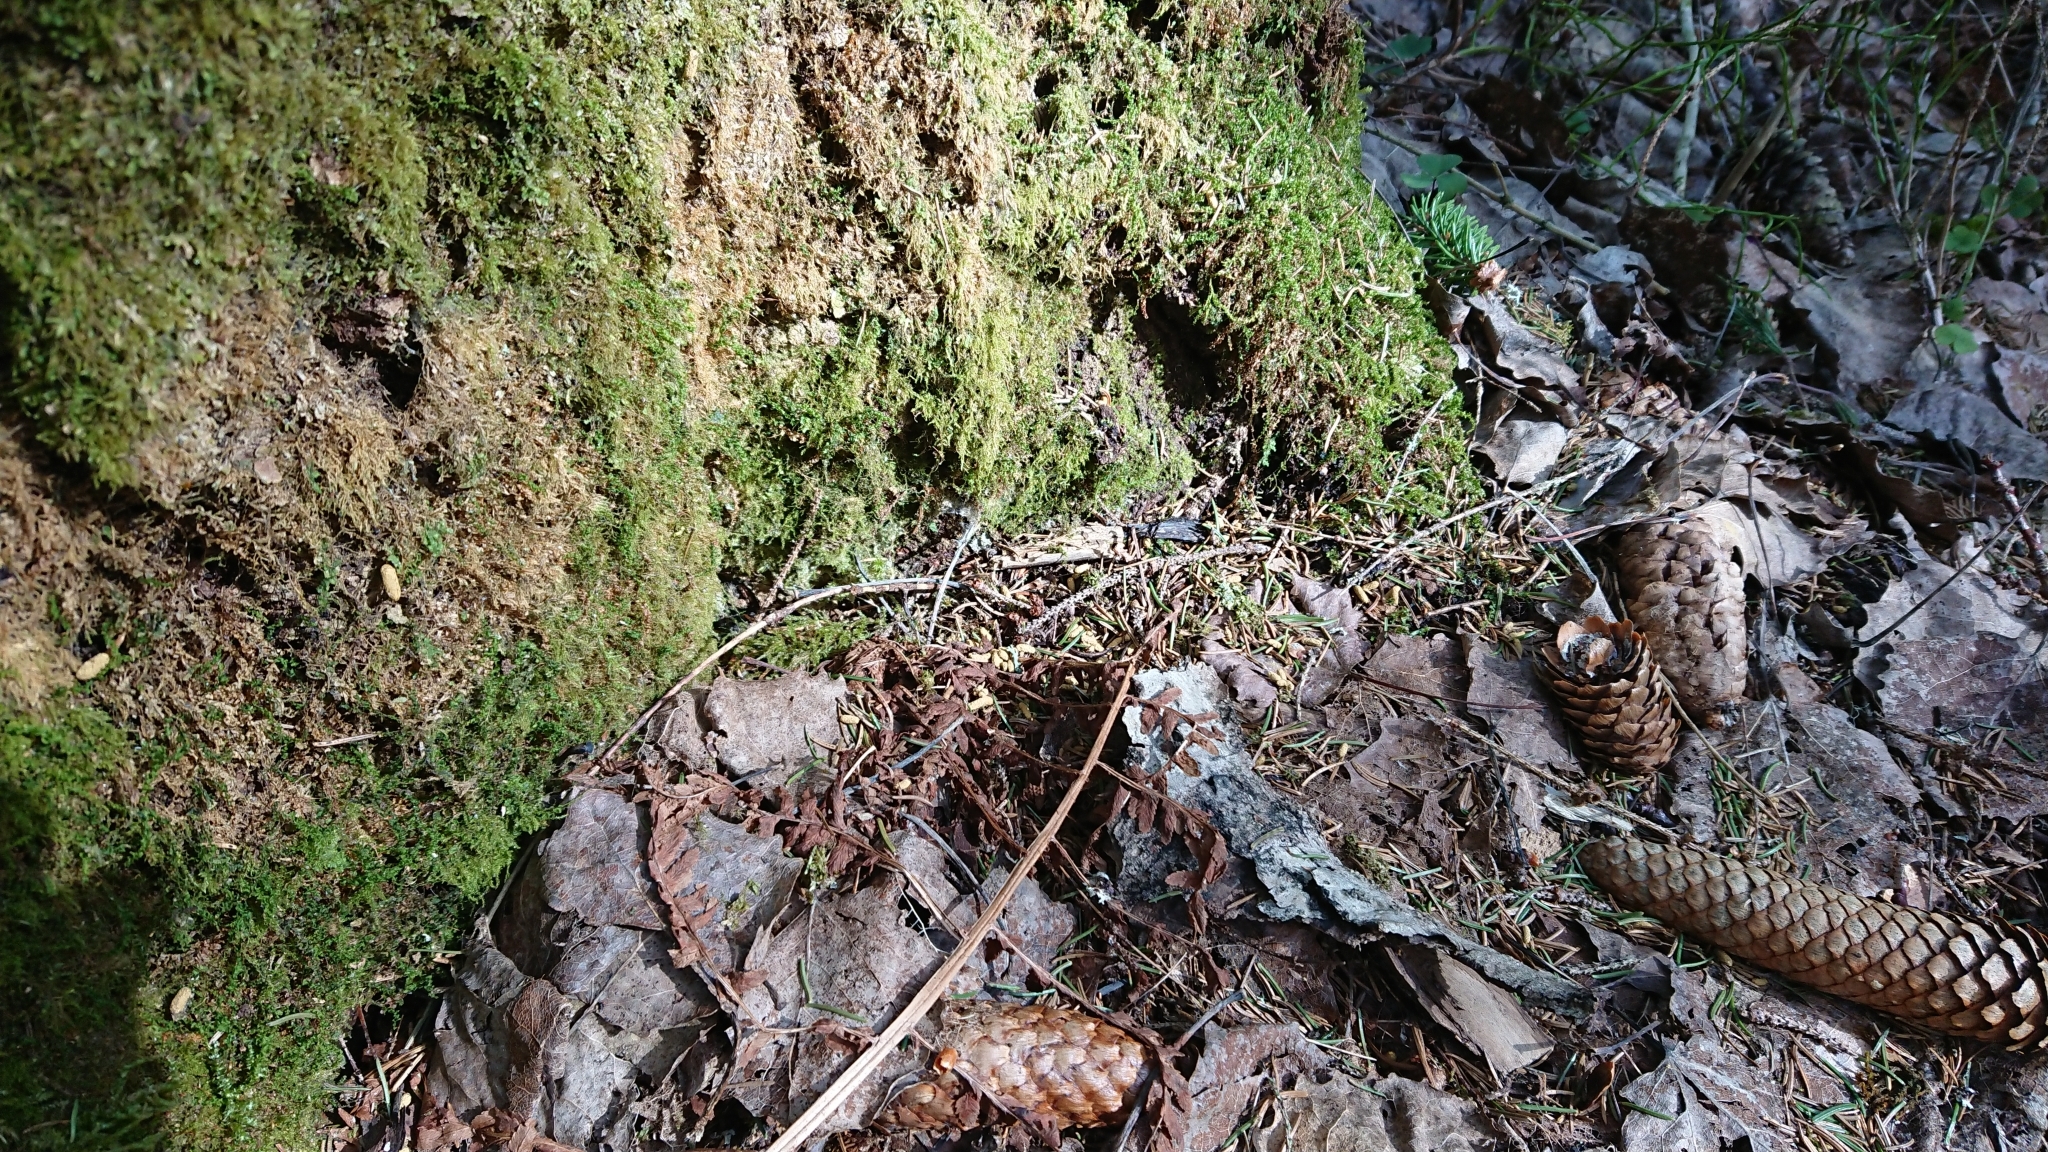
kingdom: Animalia
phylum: Chordata
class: Mammalia
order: Rodentia
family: Sciuridae
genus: Pteromys
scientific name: Pteromys volans
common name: Siberian flying squirrel
